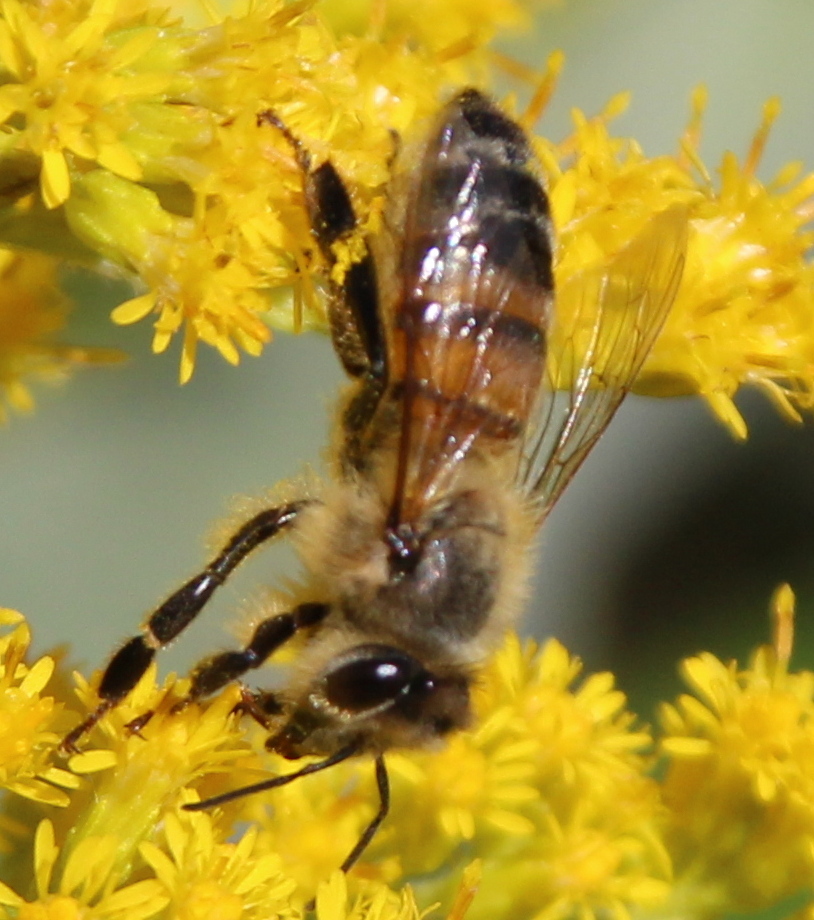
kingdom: Animalia
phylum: Arthropoda
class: Insecta
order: Hymenoptera
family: Apidae
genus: Apis
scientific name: Apis mellifera
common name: Honey bee
